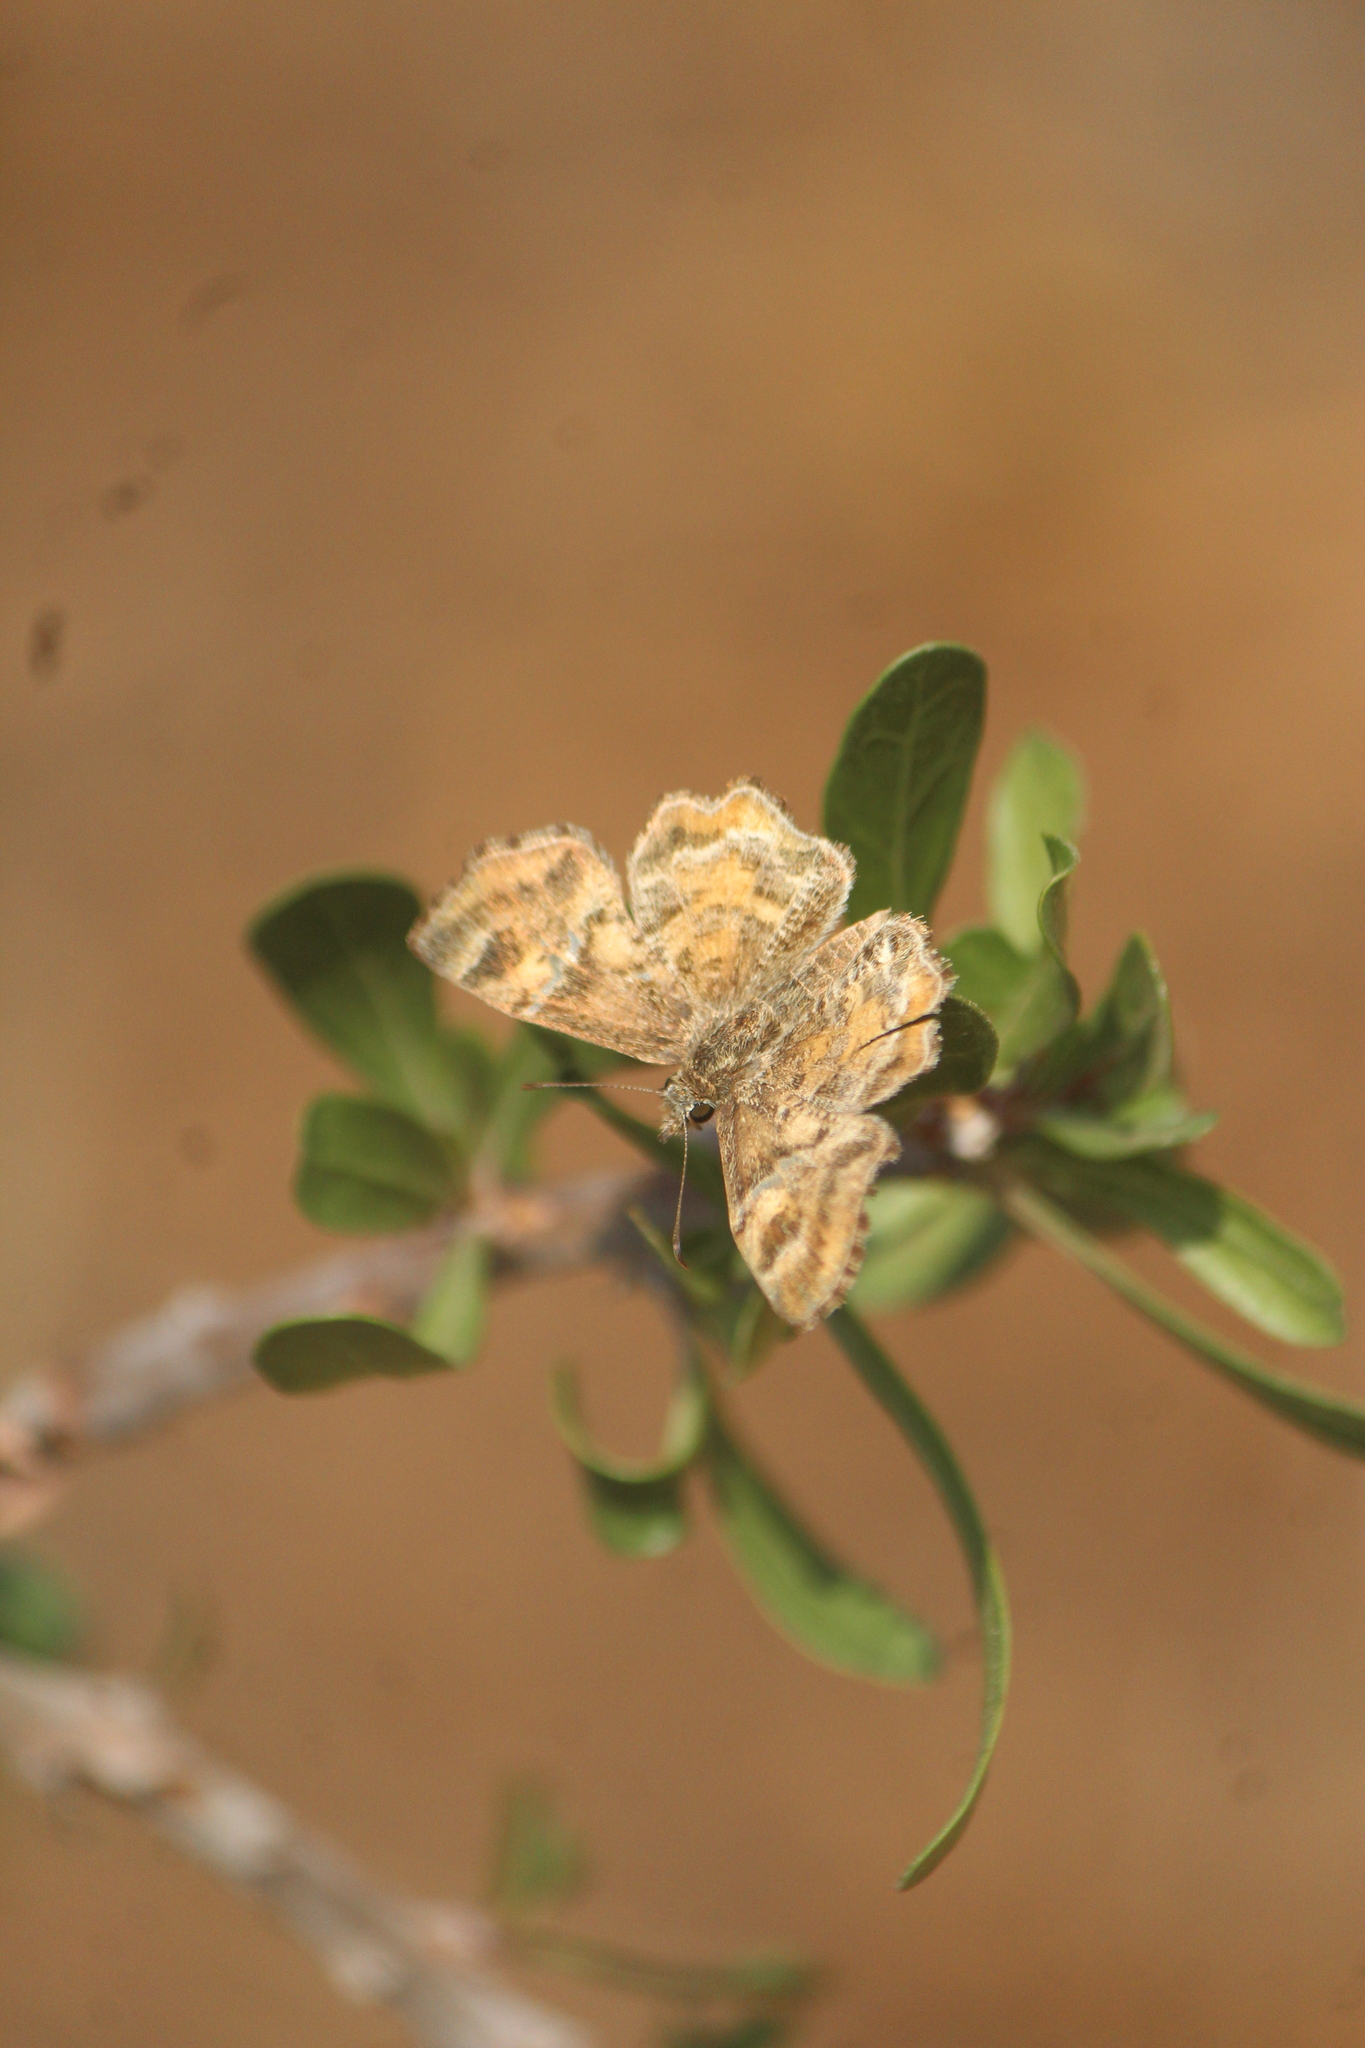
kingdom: Animalia
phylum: Arthropoda
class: Insecta
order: Lepidoptera
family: Hesperiidae
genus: Systasea
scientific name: Systasea pulverulenta
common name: Texas powdered skipper
